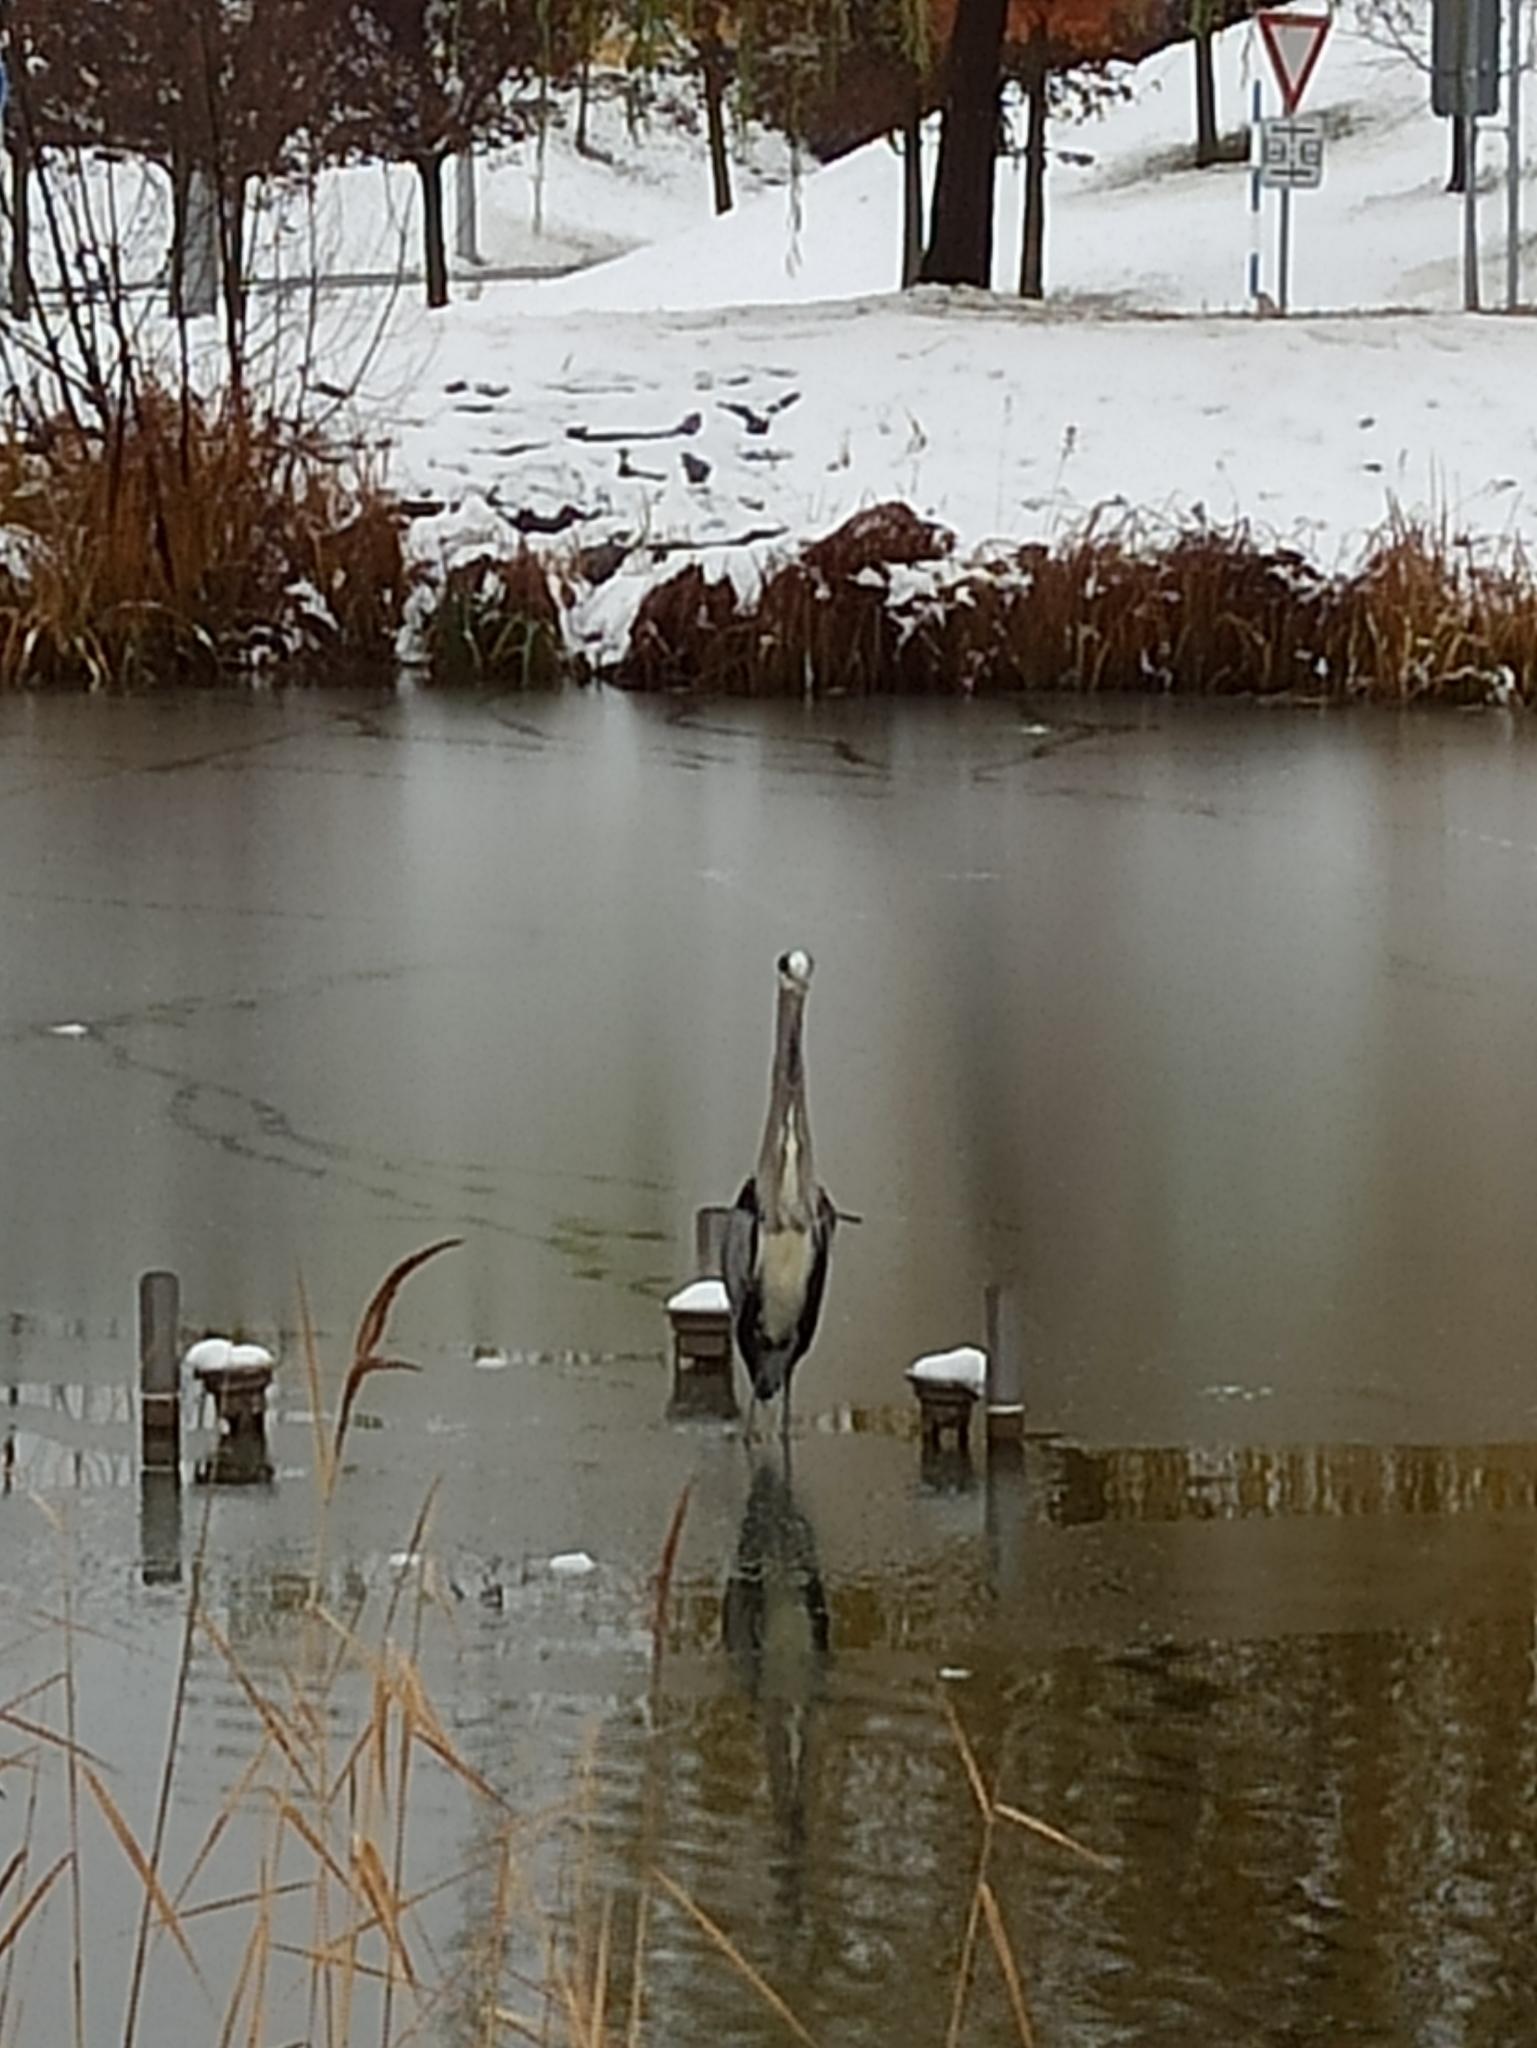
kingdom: Animalia
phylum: Chordata
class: Aves
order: Pelecaniformes
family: Ardeidae
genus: Ardea
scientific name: Ardea cinerea
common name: Grey heron
